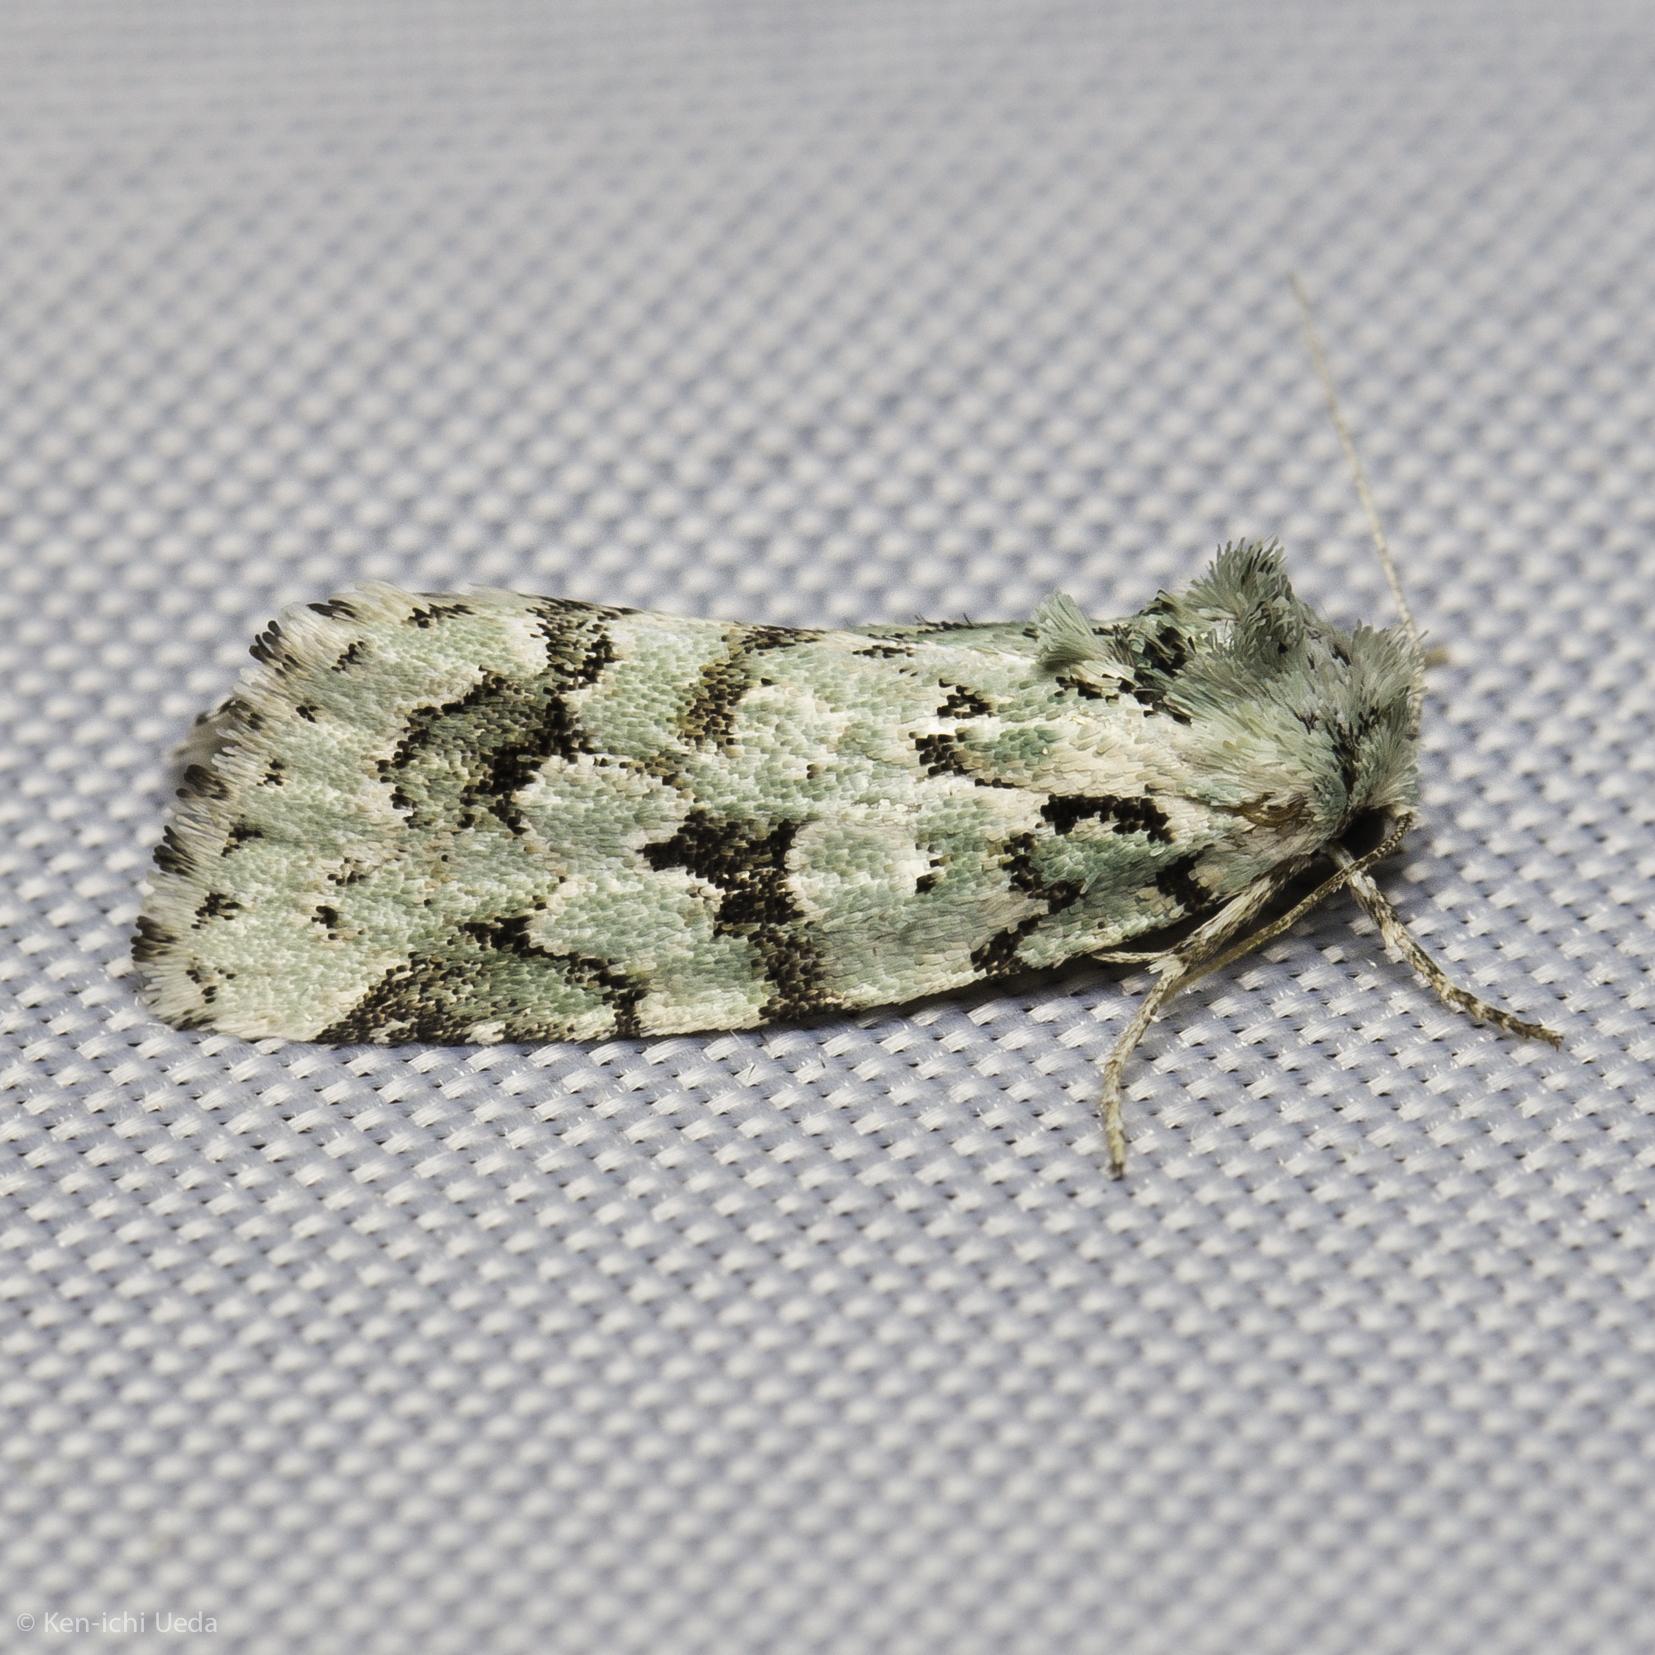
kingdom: Animalia
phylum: Arthropoda
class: Insecta
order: Lepidoptera
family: Noctuidae
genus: Bryolymnia
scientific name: Bryolymnia viridata
